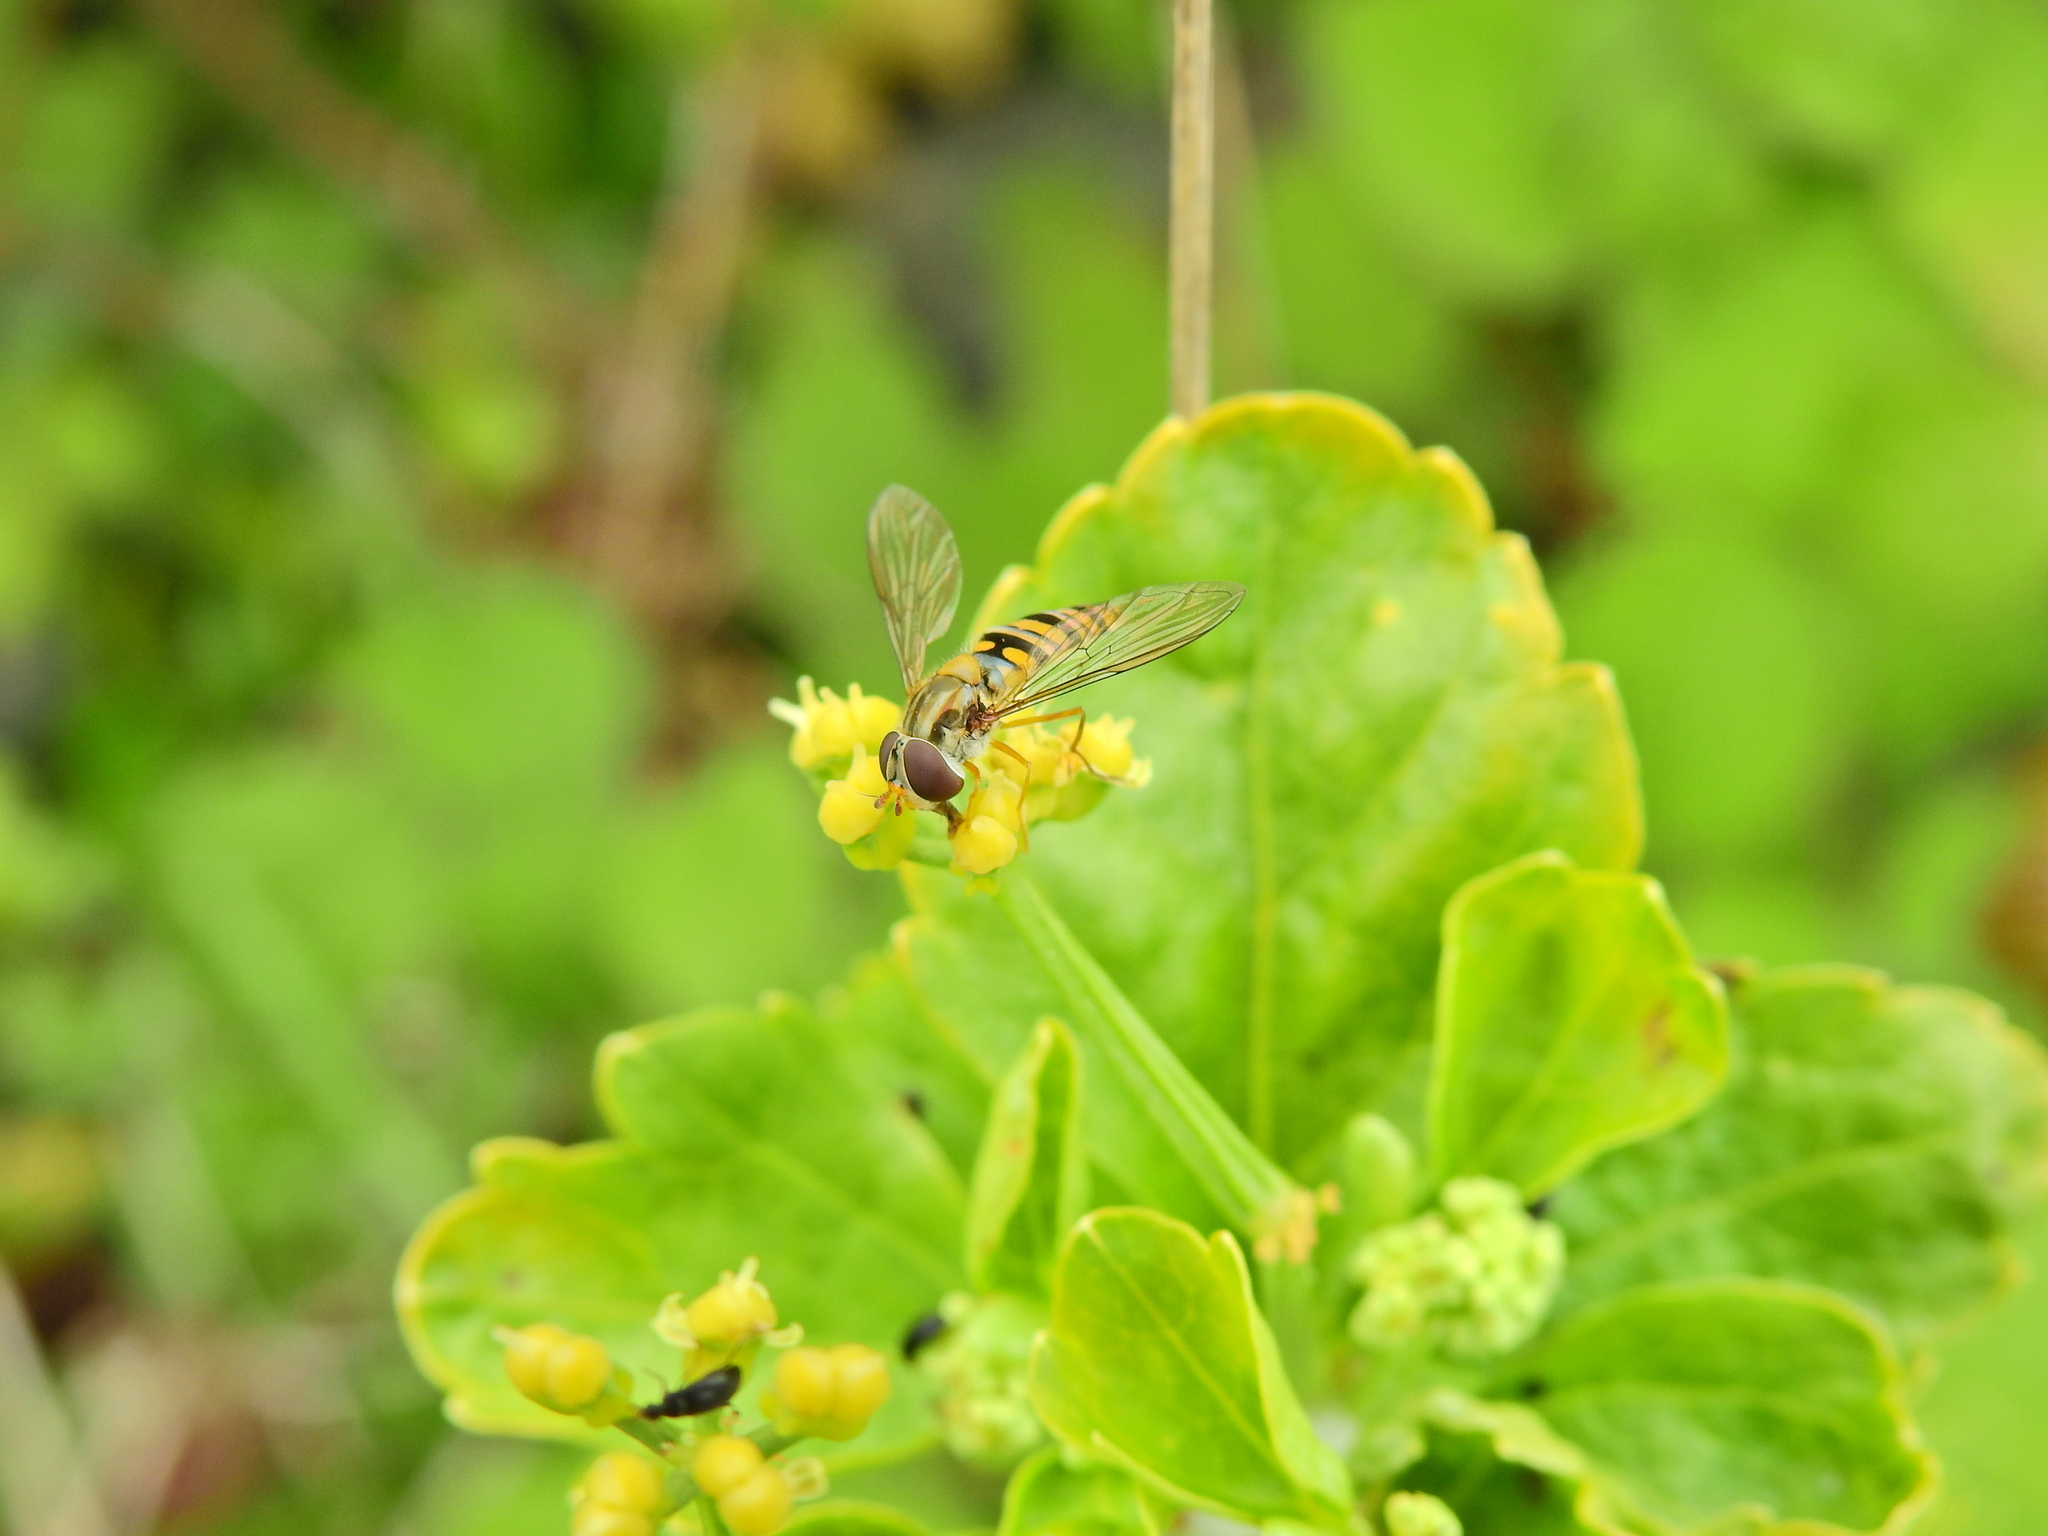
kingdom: Animalia
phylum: Arthropoda
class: Insecta
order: Diptera
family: Syrphidae
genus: Episyrphus
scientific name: Episyrphus balteatus
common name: Marmalade hoverfly
